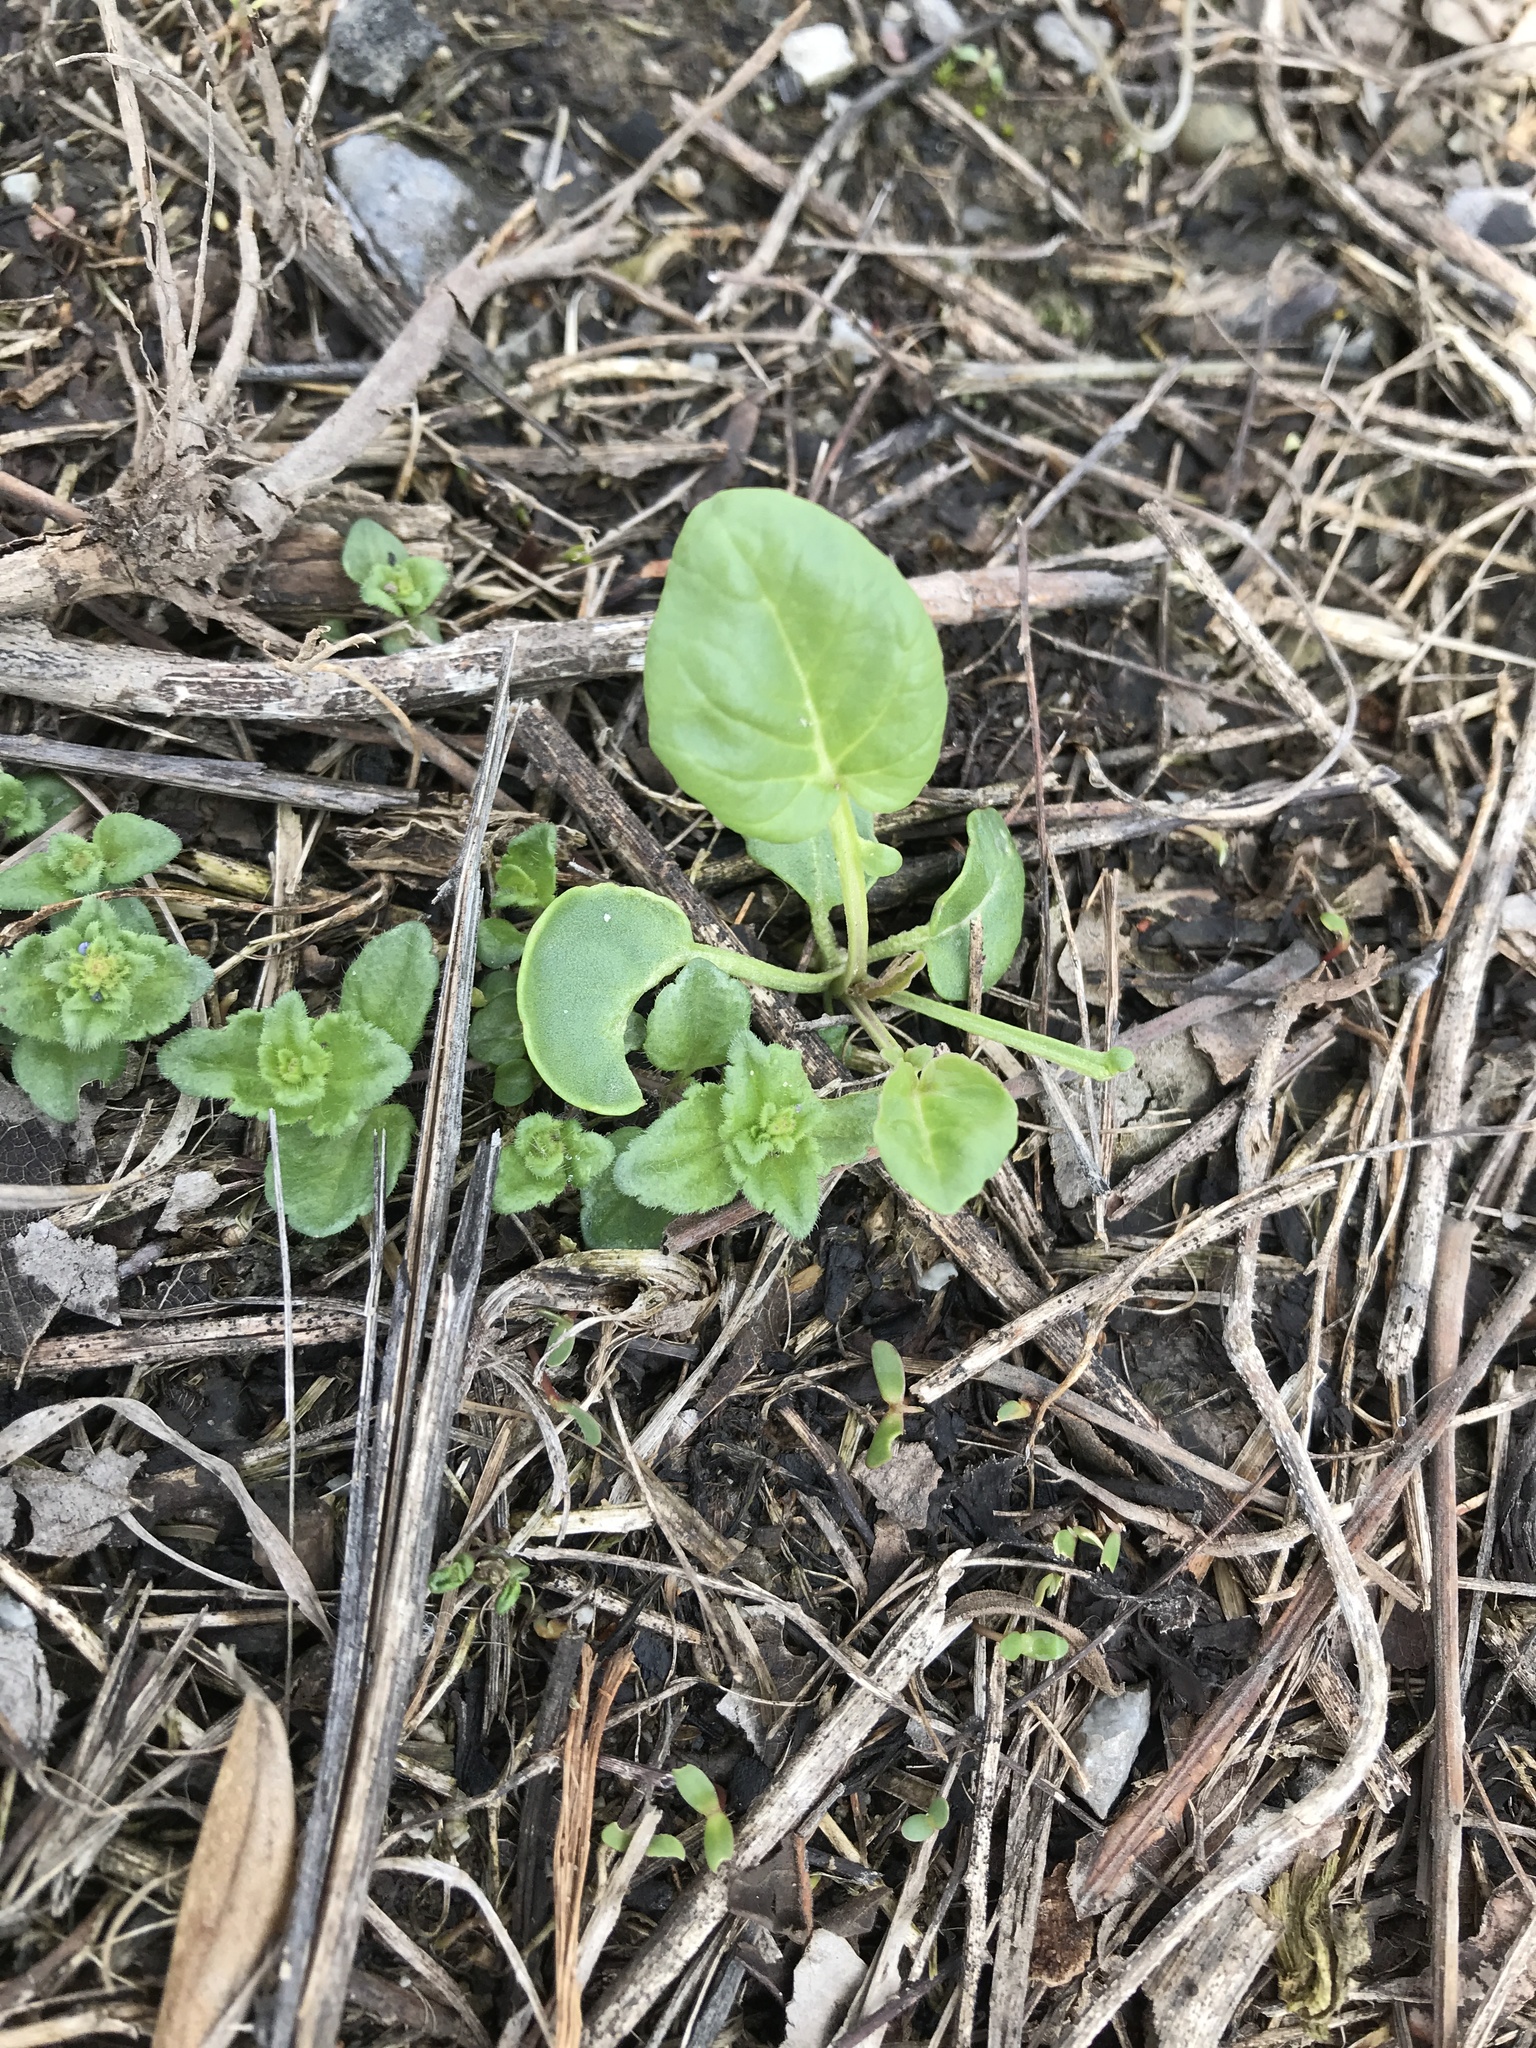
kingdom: Plantae
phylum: Tracheophyta
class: Magnoliopsida
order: Lamiales
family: Plantaginaceae
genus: Veronica
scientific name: Veronica arvensis
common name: Corn speedwell
